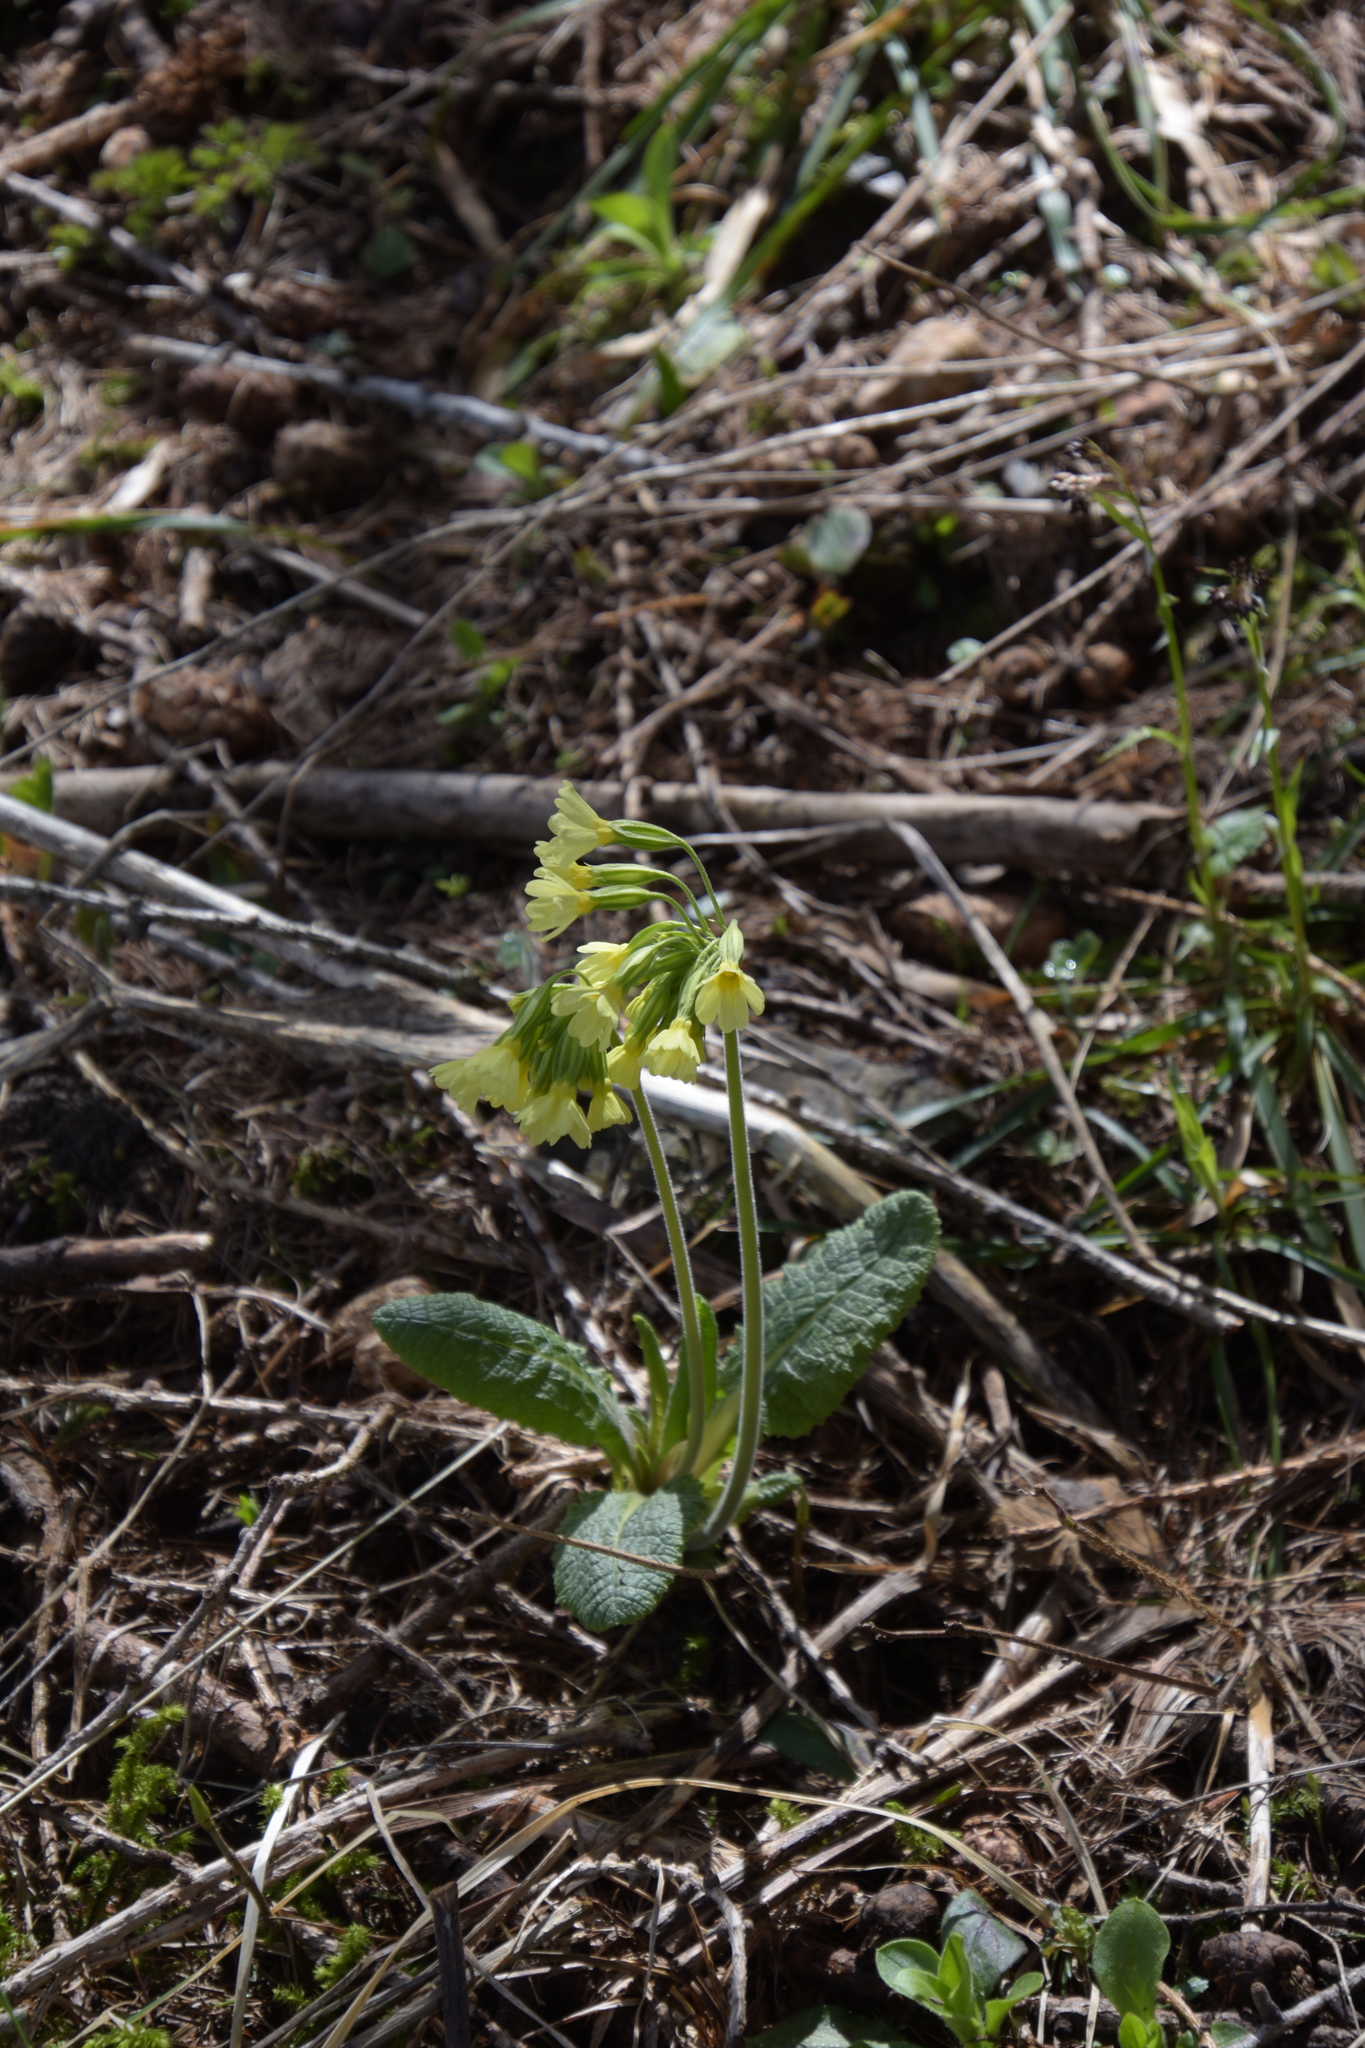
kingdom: Plantae
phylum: Tracheophyta
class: Magnoliopsida
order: Ericales
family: Primulaceae
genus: Primula
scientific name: Primula elatior
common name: Oxlip
